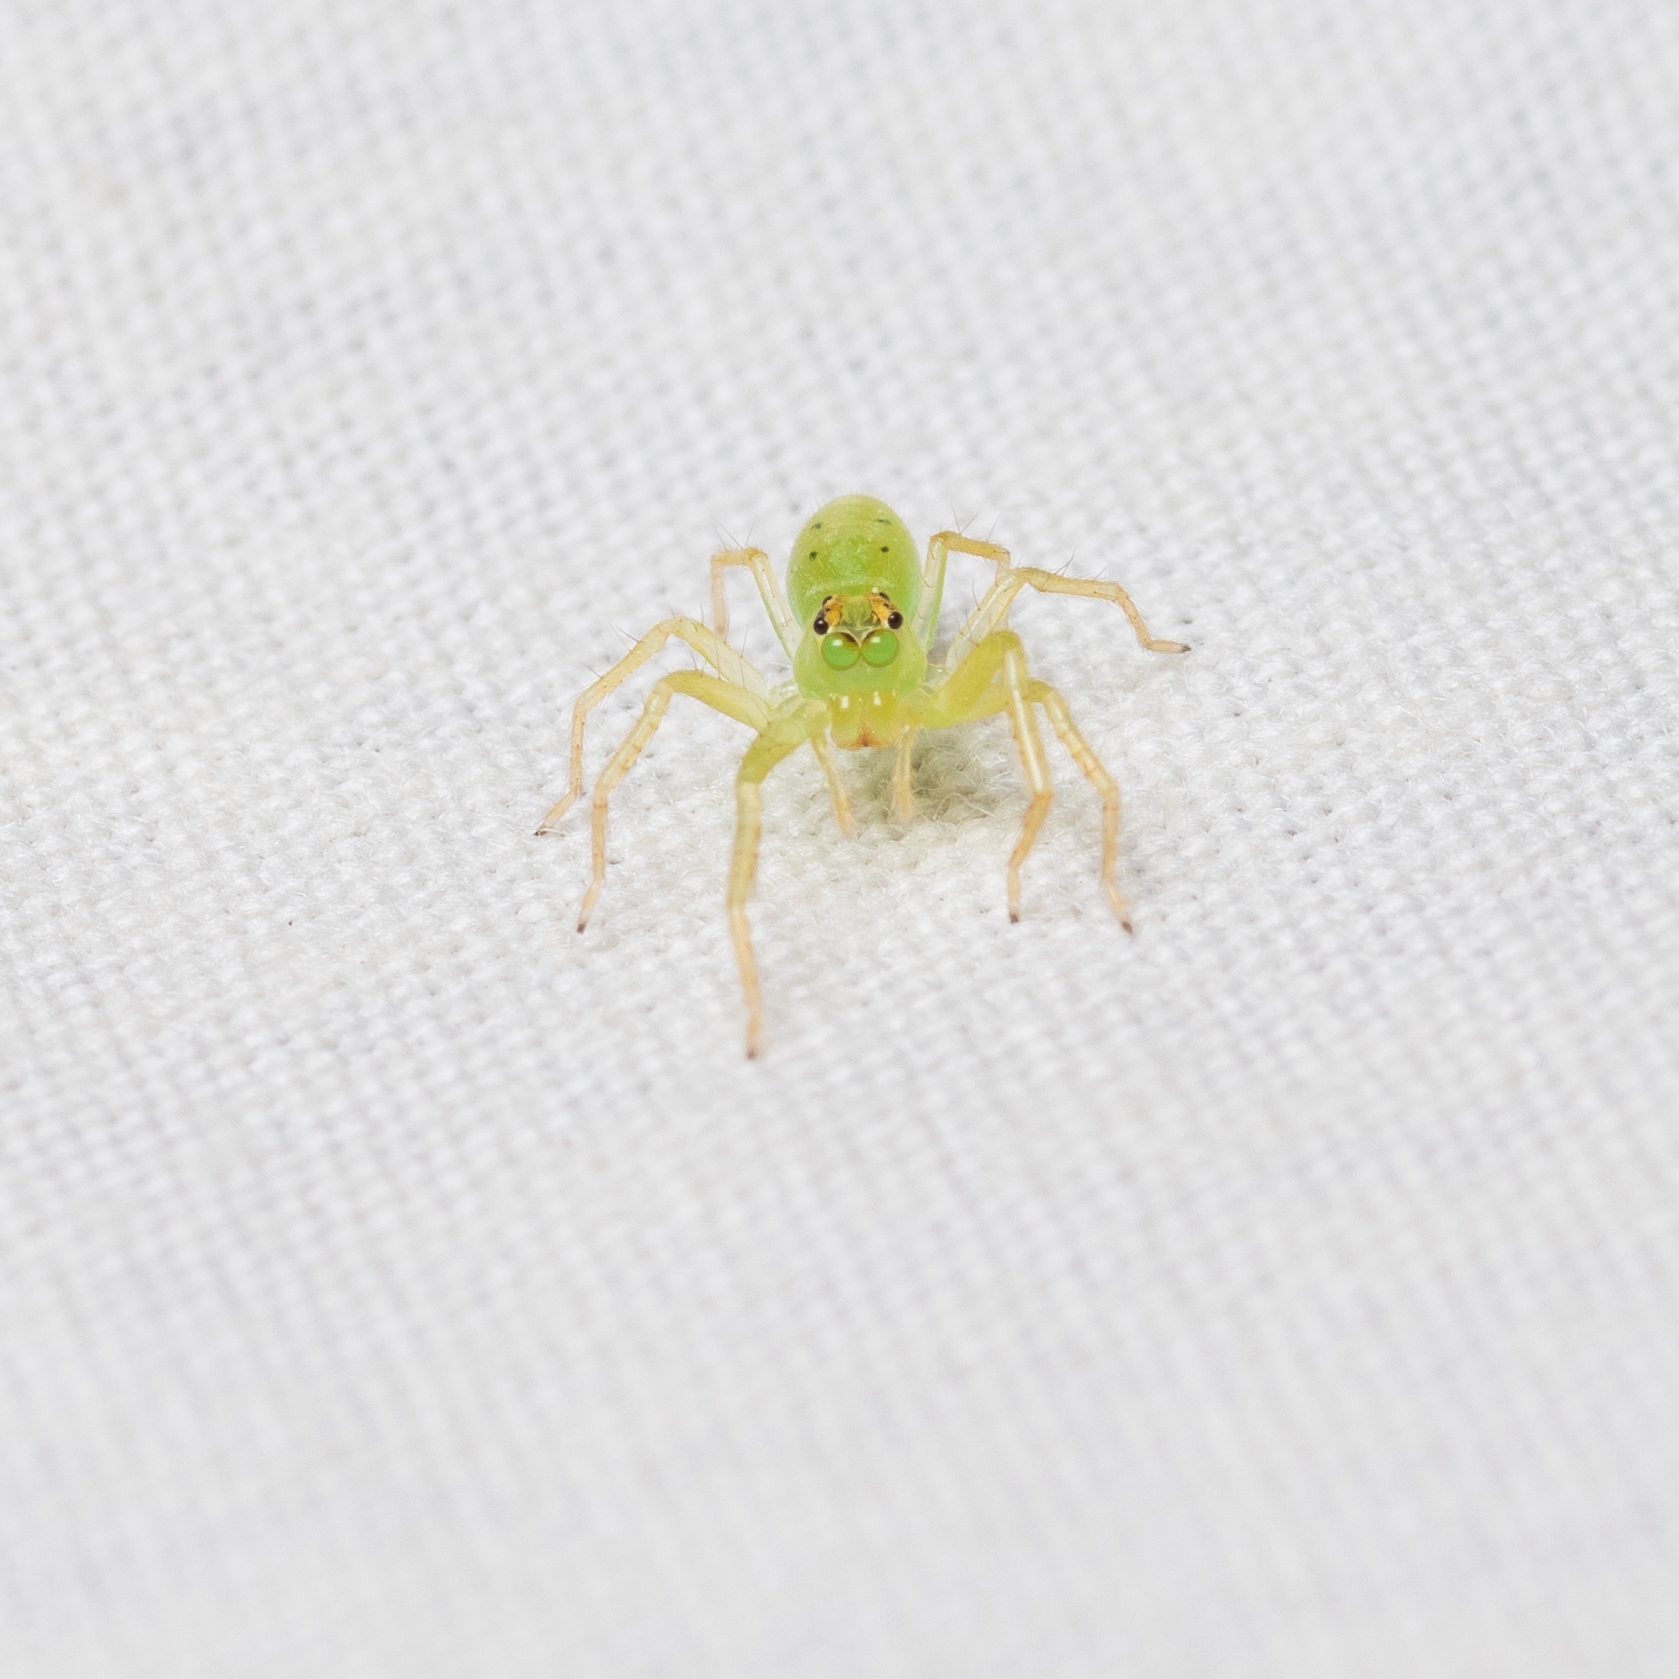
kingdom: Animalia
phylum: Arthropoda
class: Arachnida
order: Araneae
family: Salticidae
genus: Lyssomanes
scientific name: Lyssomanes viridis
